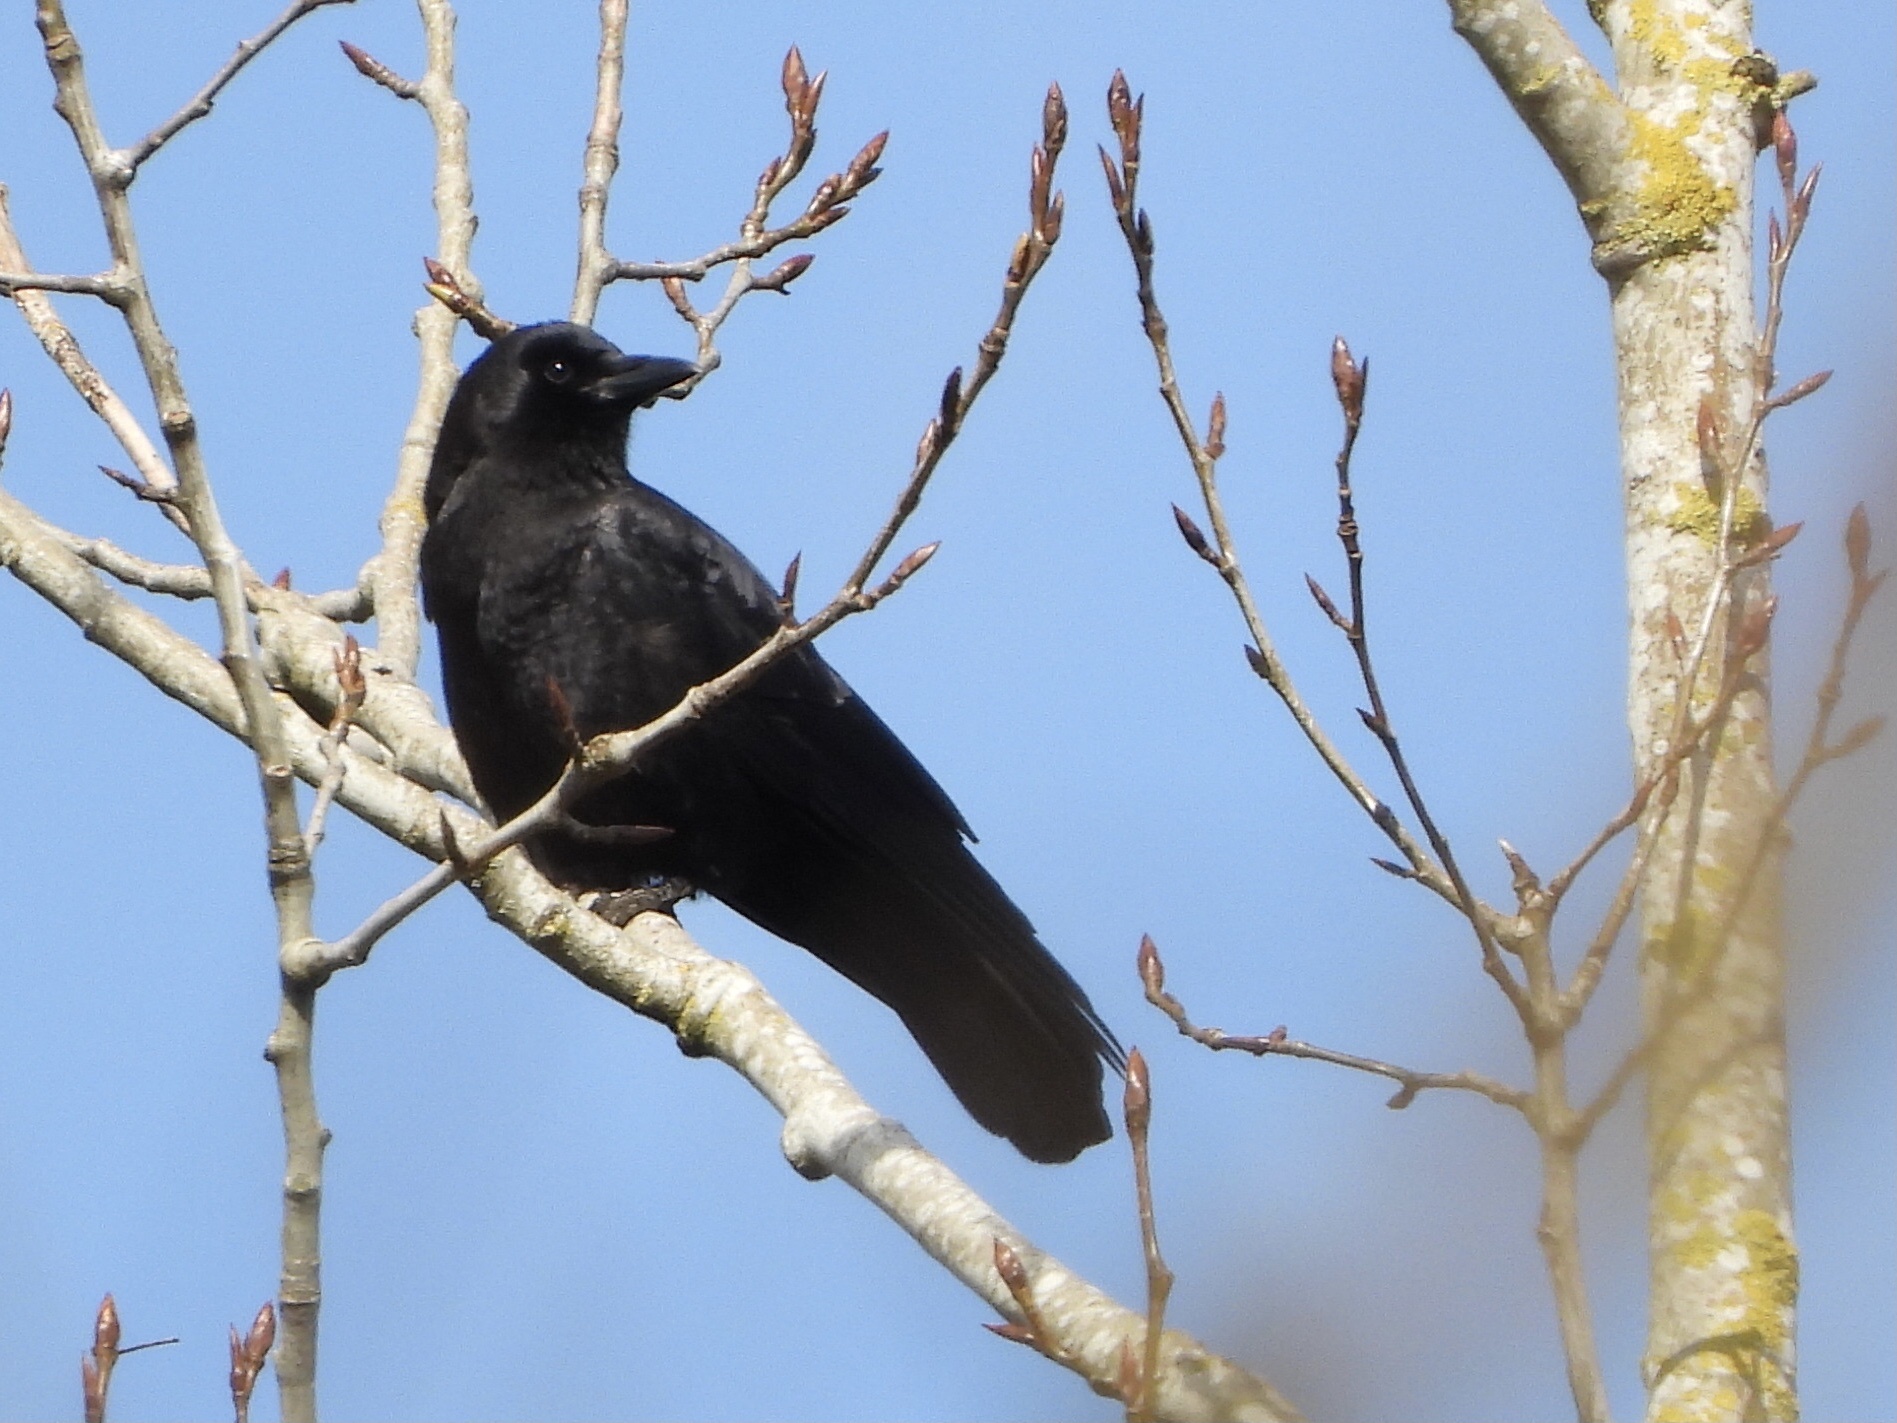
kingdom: Animalia
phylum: Chordata
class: Aves
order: Passeriformes
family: Corvidae
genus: Corvus
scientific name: Corvus brachyrhynchos
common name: American crow
